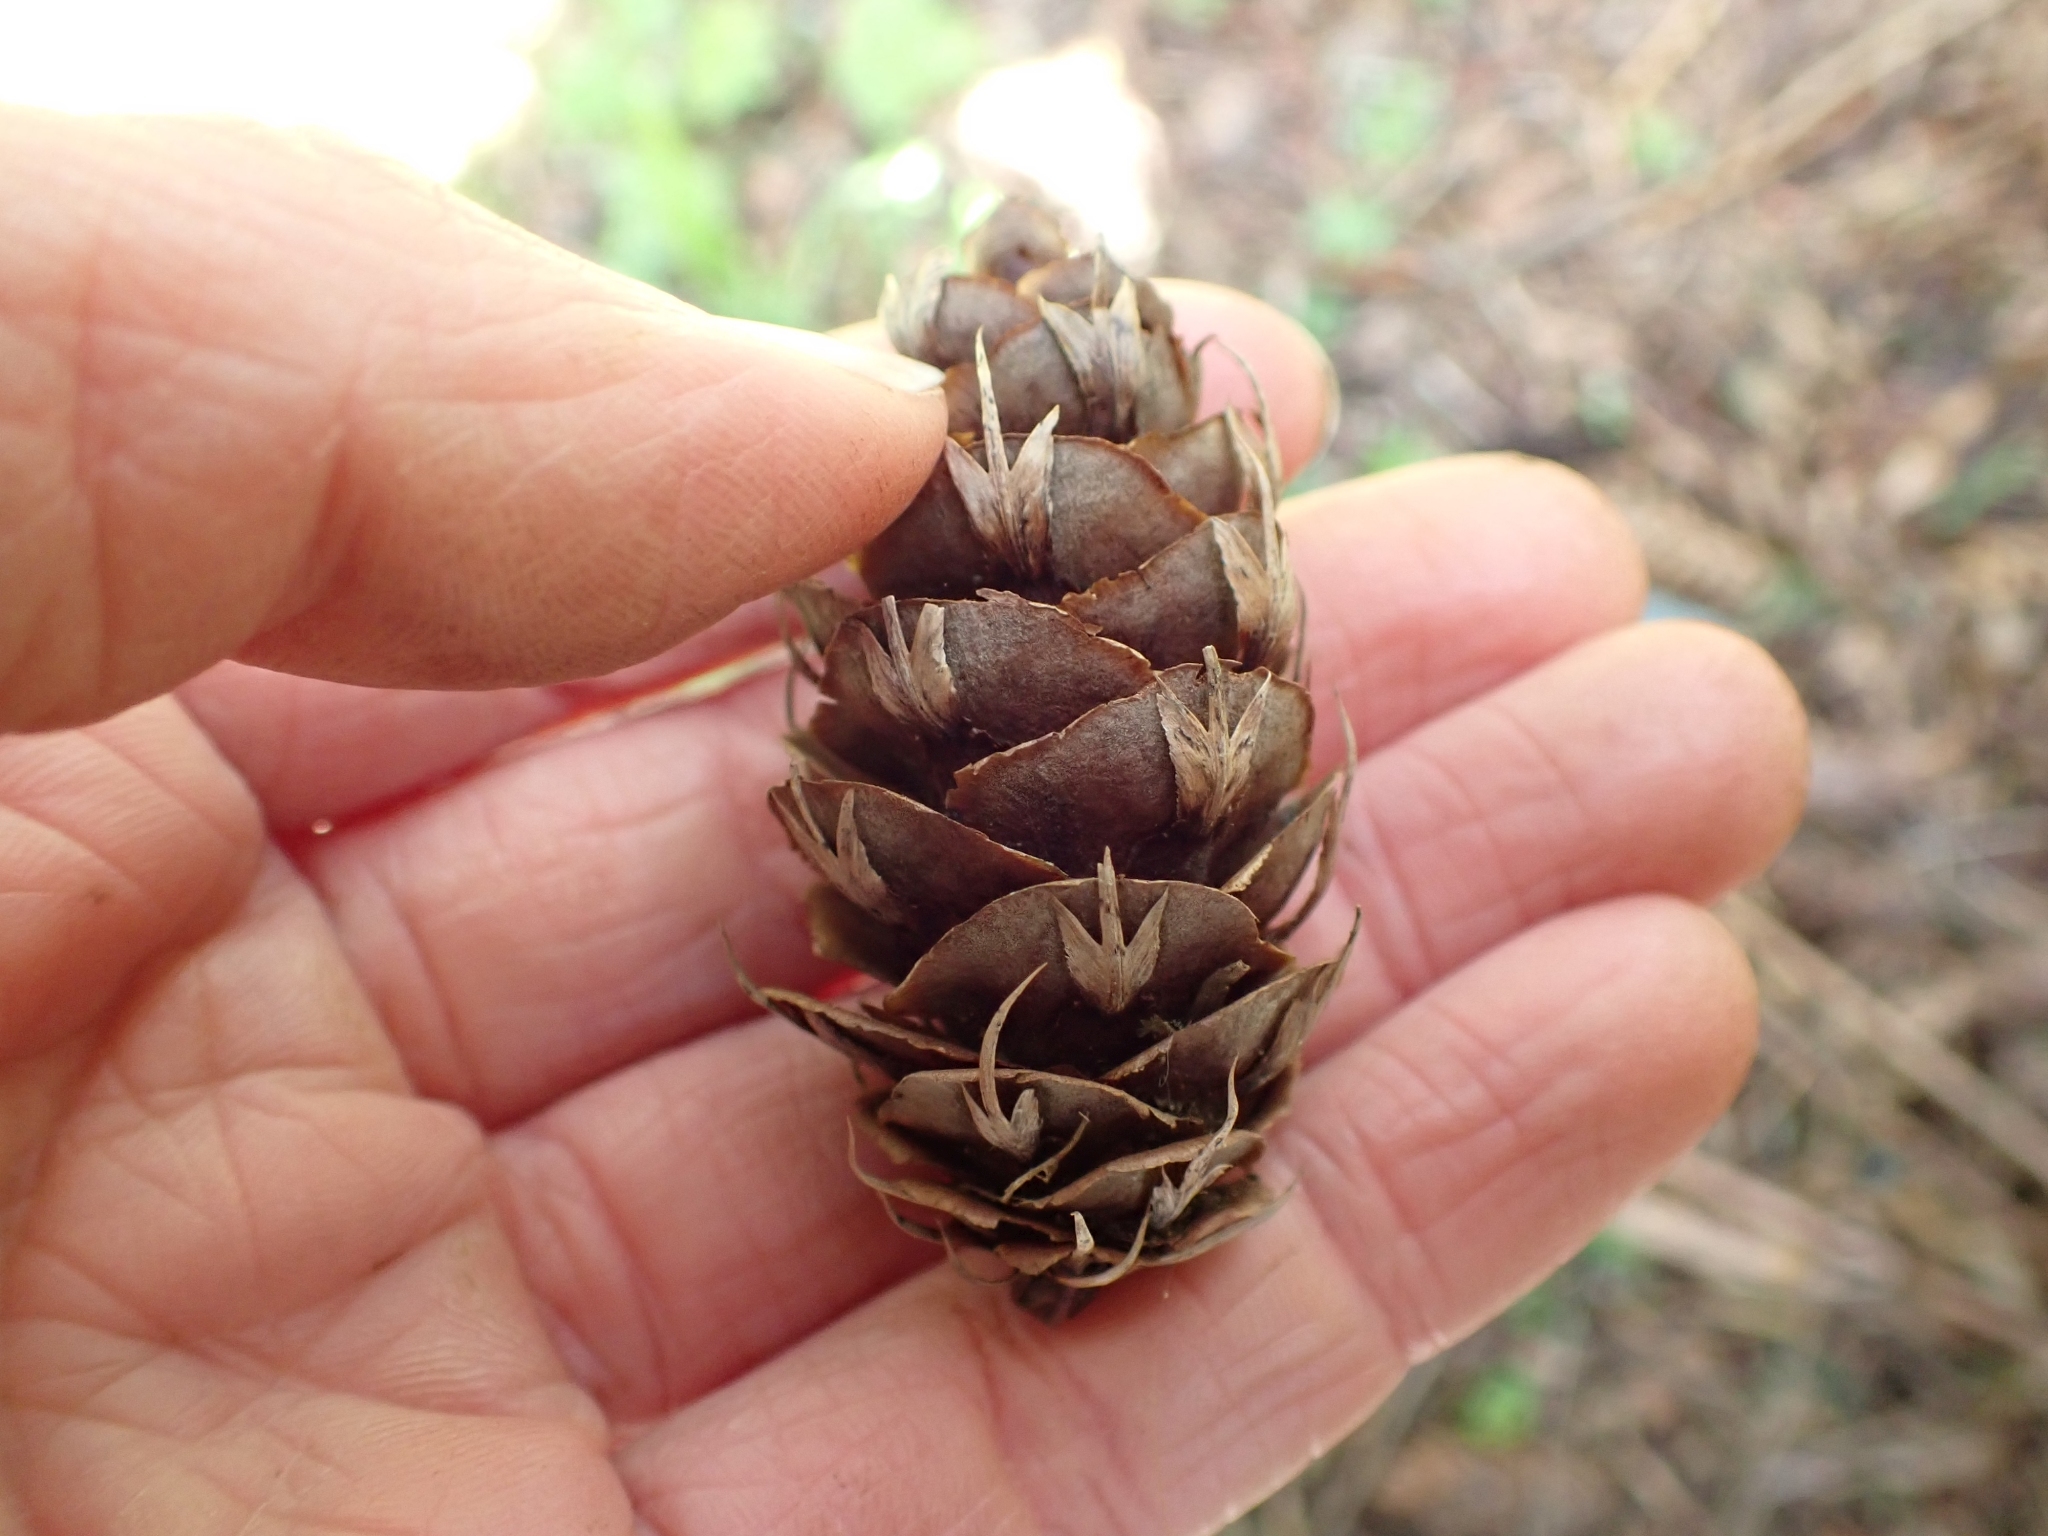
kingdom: Plantae
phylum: Tracheophyta
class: Pinopsida
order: Pinales
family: Pinaceae
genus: Pseudotsuga
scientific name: Pseudotsuga menziesii
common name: Douglas fir
